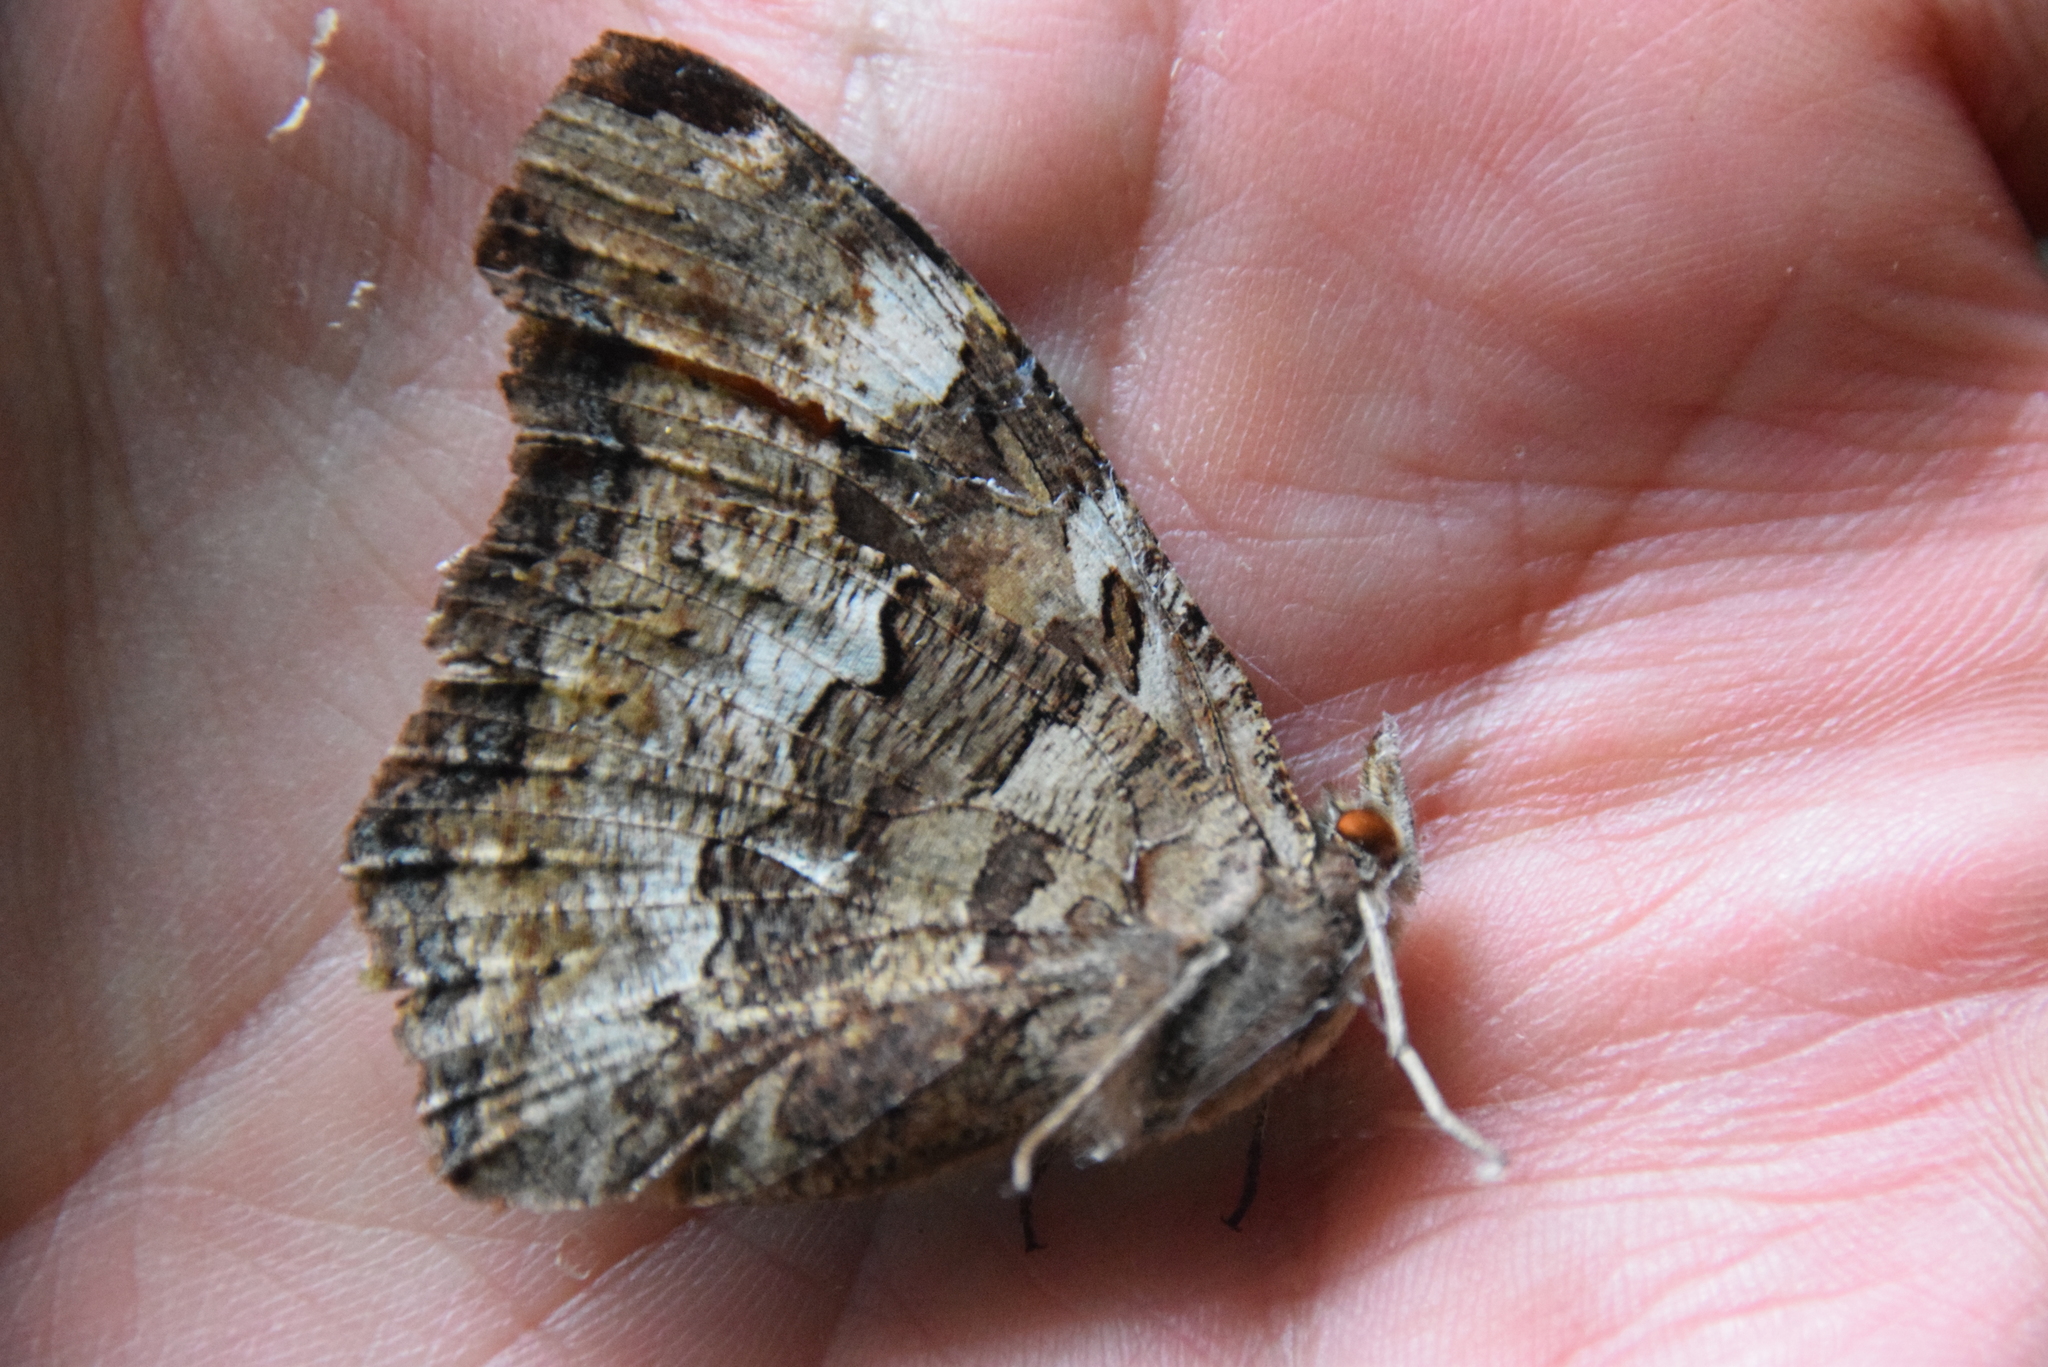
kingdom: Animalia
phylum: Arthropoda
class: Insecta
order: Lepidoptera
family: Nymphalidae
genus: Polygonia
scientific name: Polygonia vaualbum
